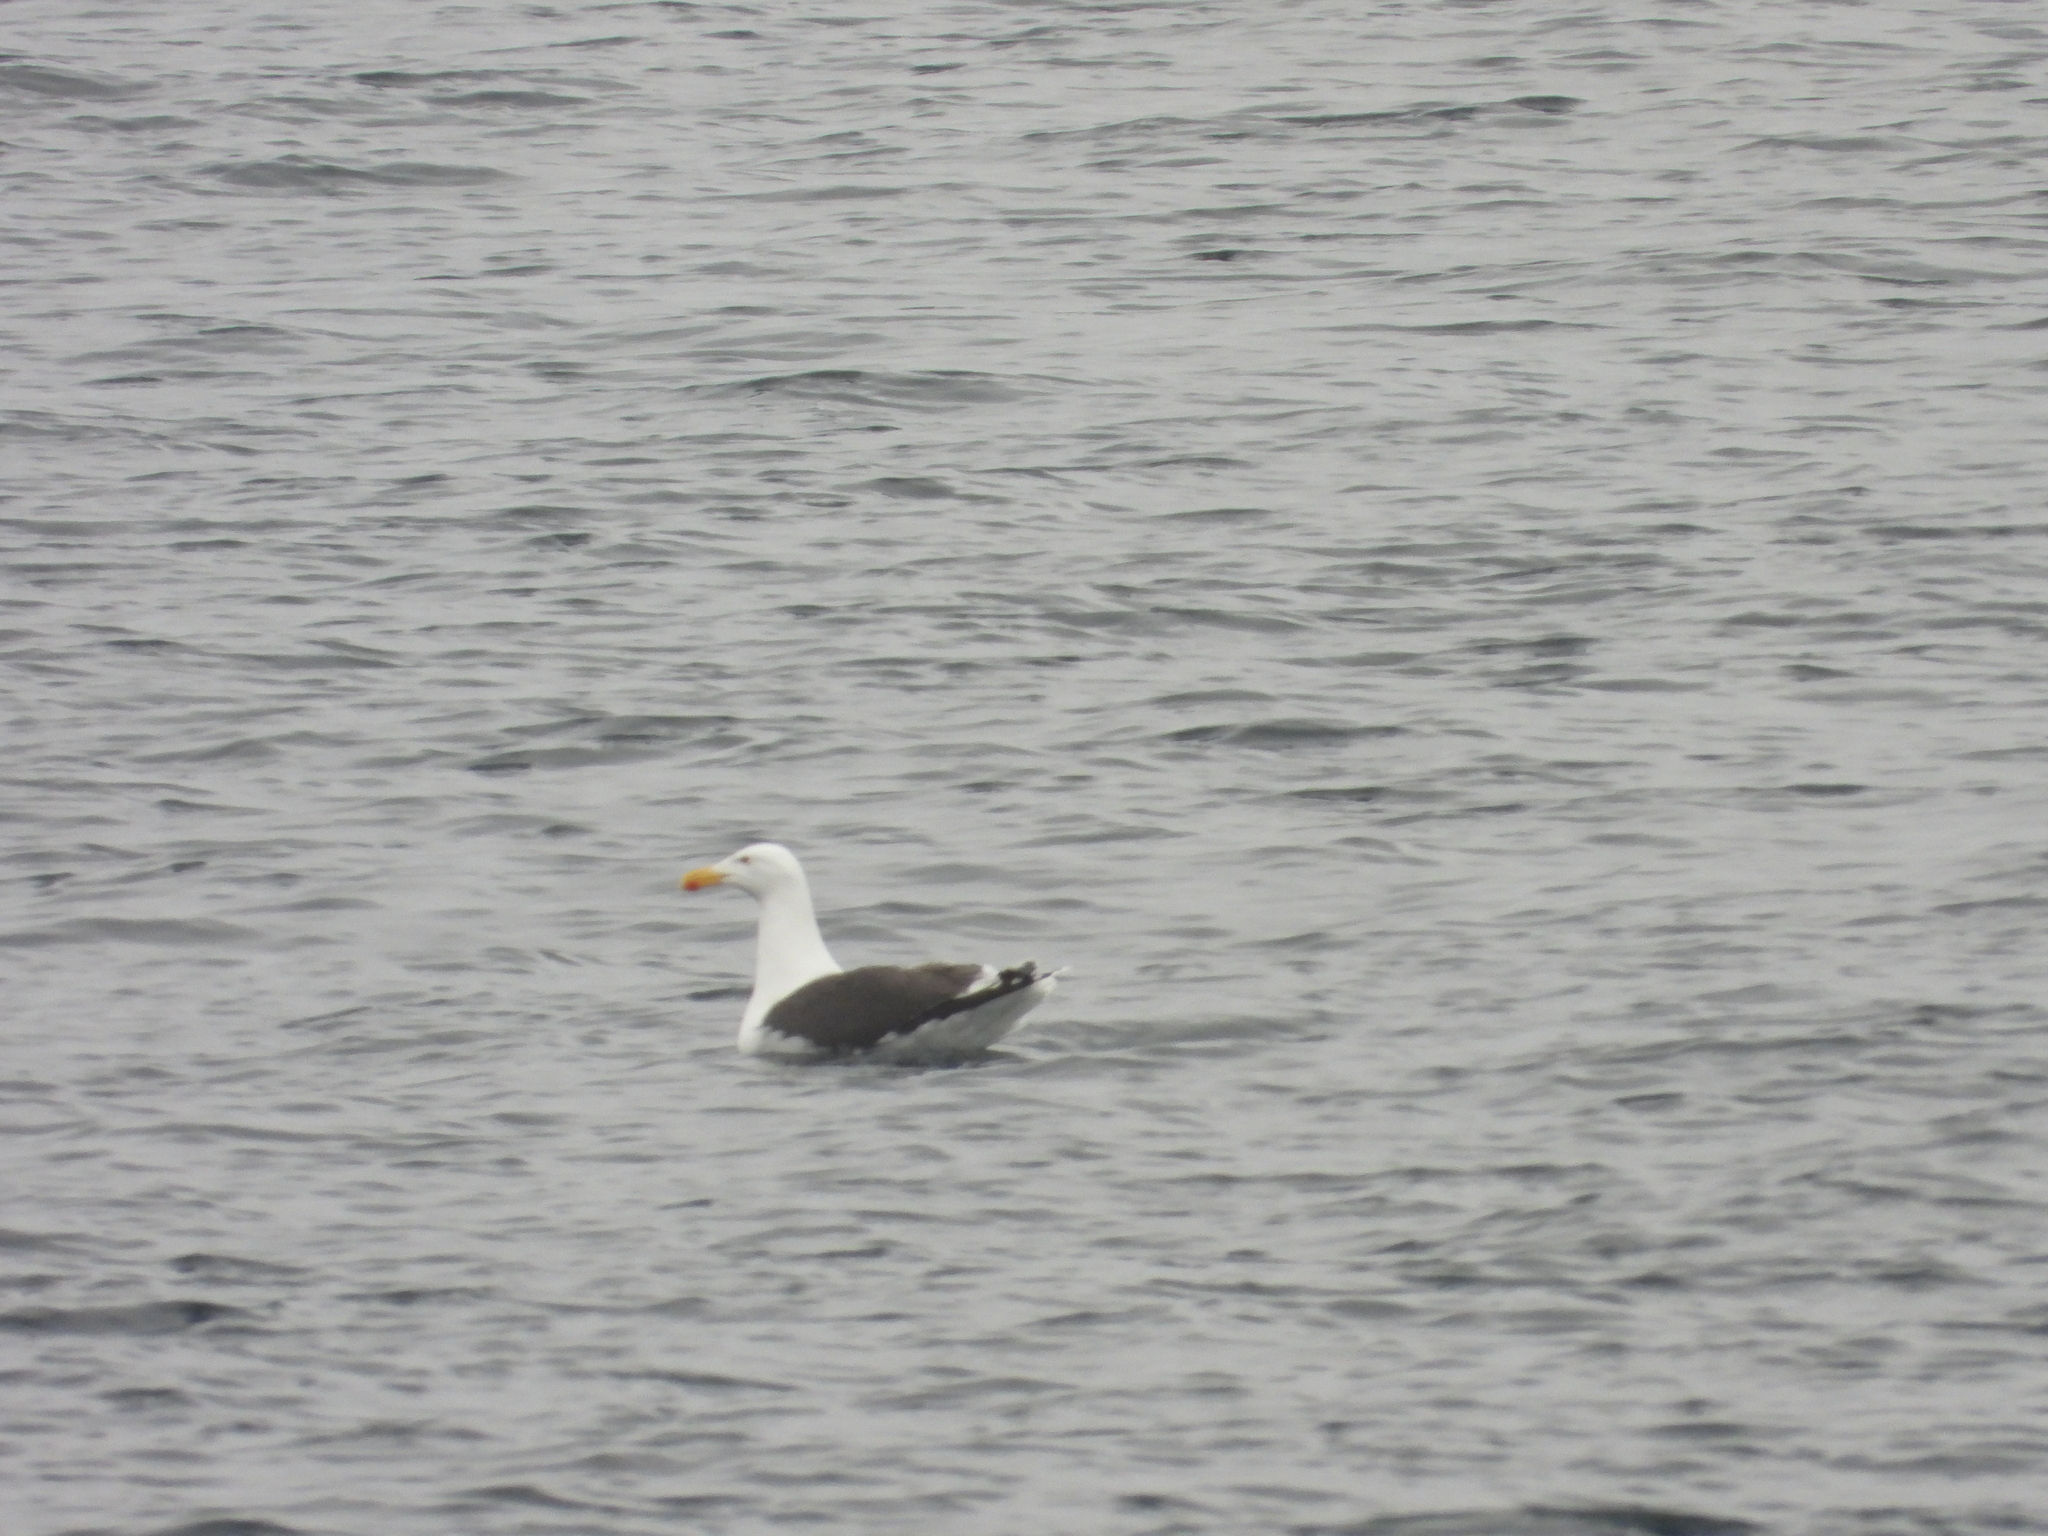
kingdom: Animalia
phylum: Chordata
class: Aves
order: Charadriiformes
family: Laridae
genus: Larus
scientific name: Larus marinus
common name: Great black-backed gull
